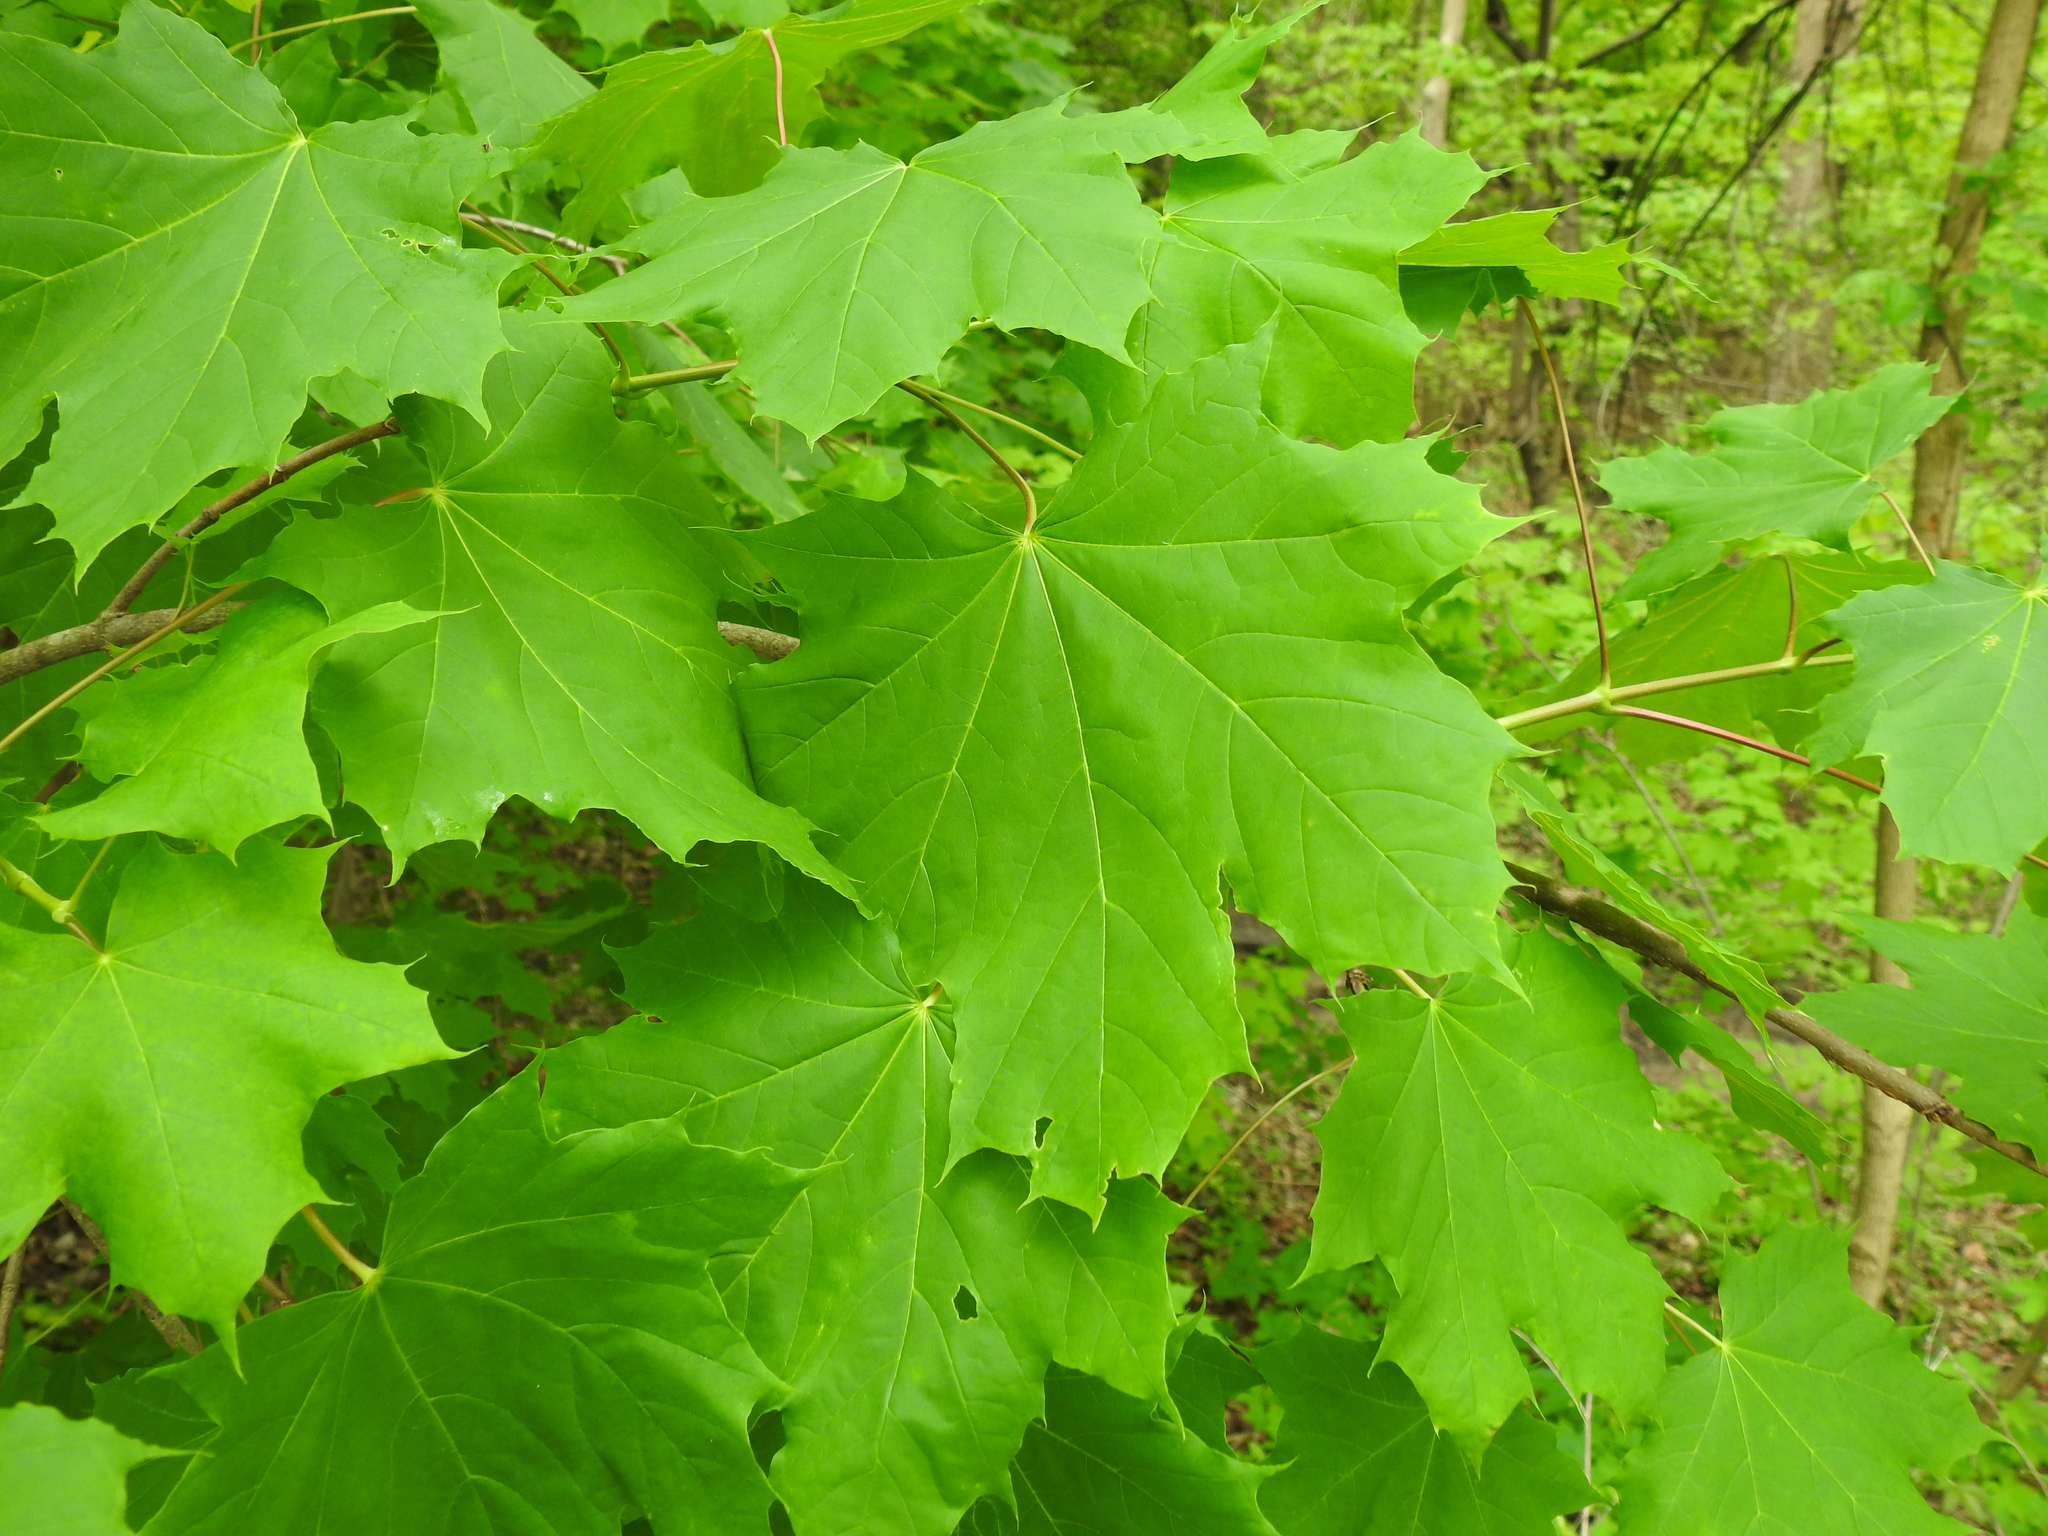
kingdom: Plantae
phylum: Tracheophyta
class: Magnoliopsida
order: Sapindales
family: Sapindaceae
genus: Acer
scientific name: Acer platanoides
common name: Norway maple
